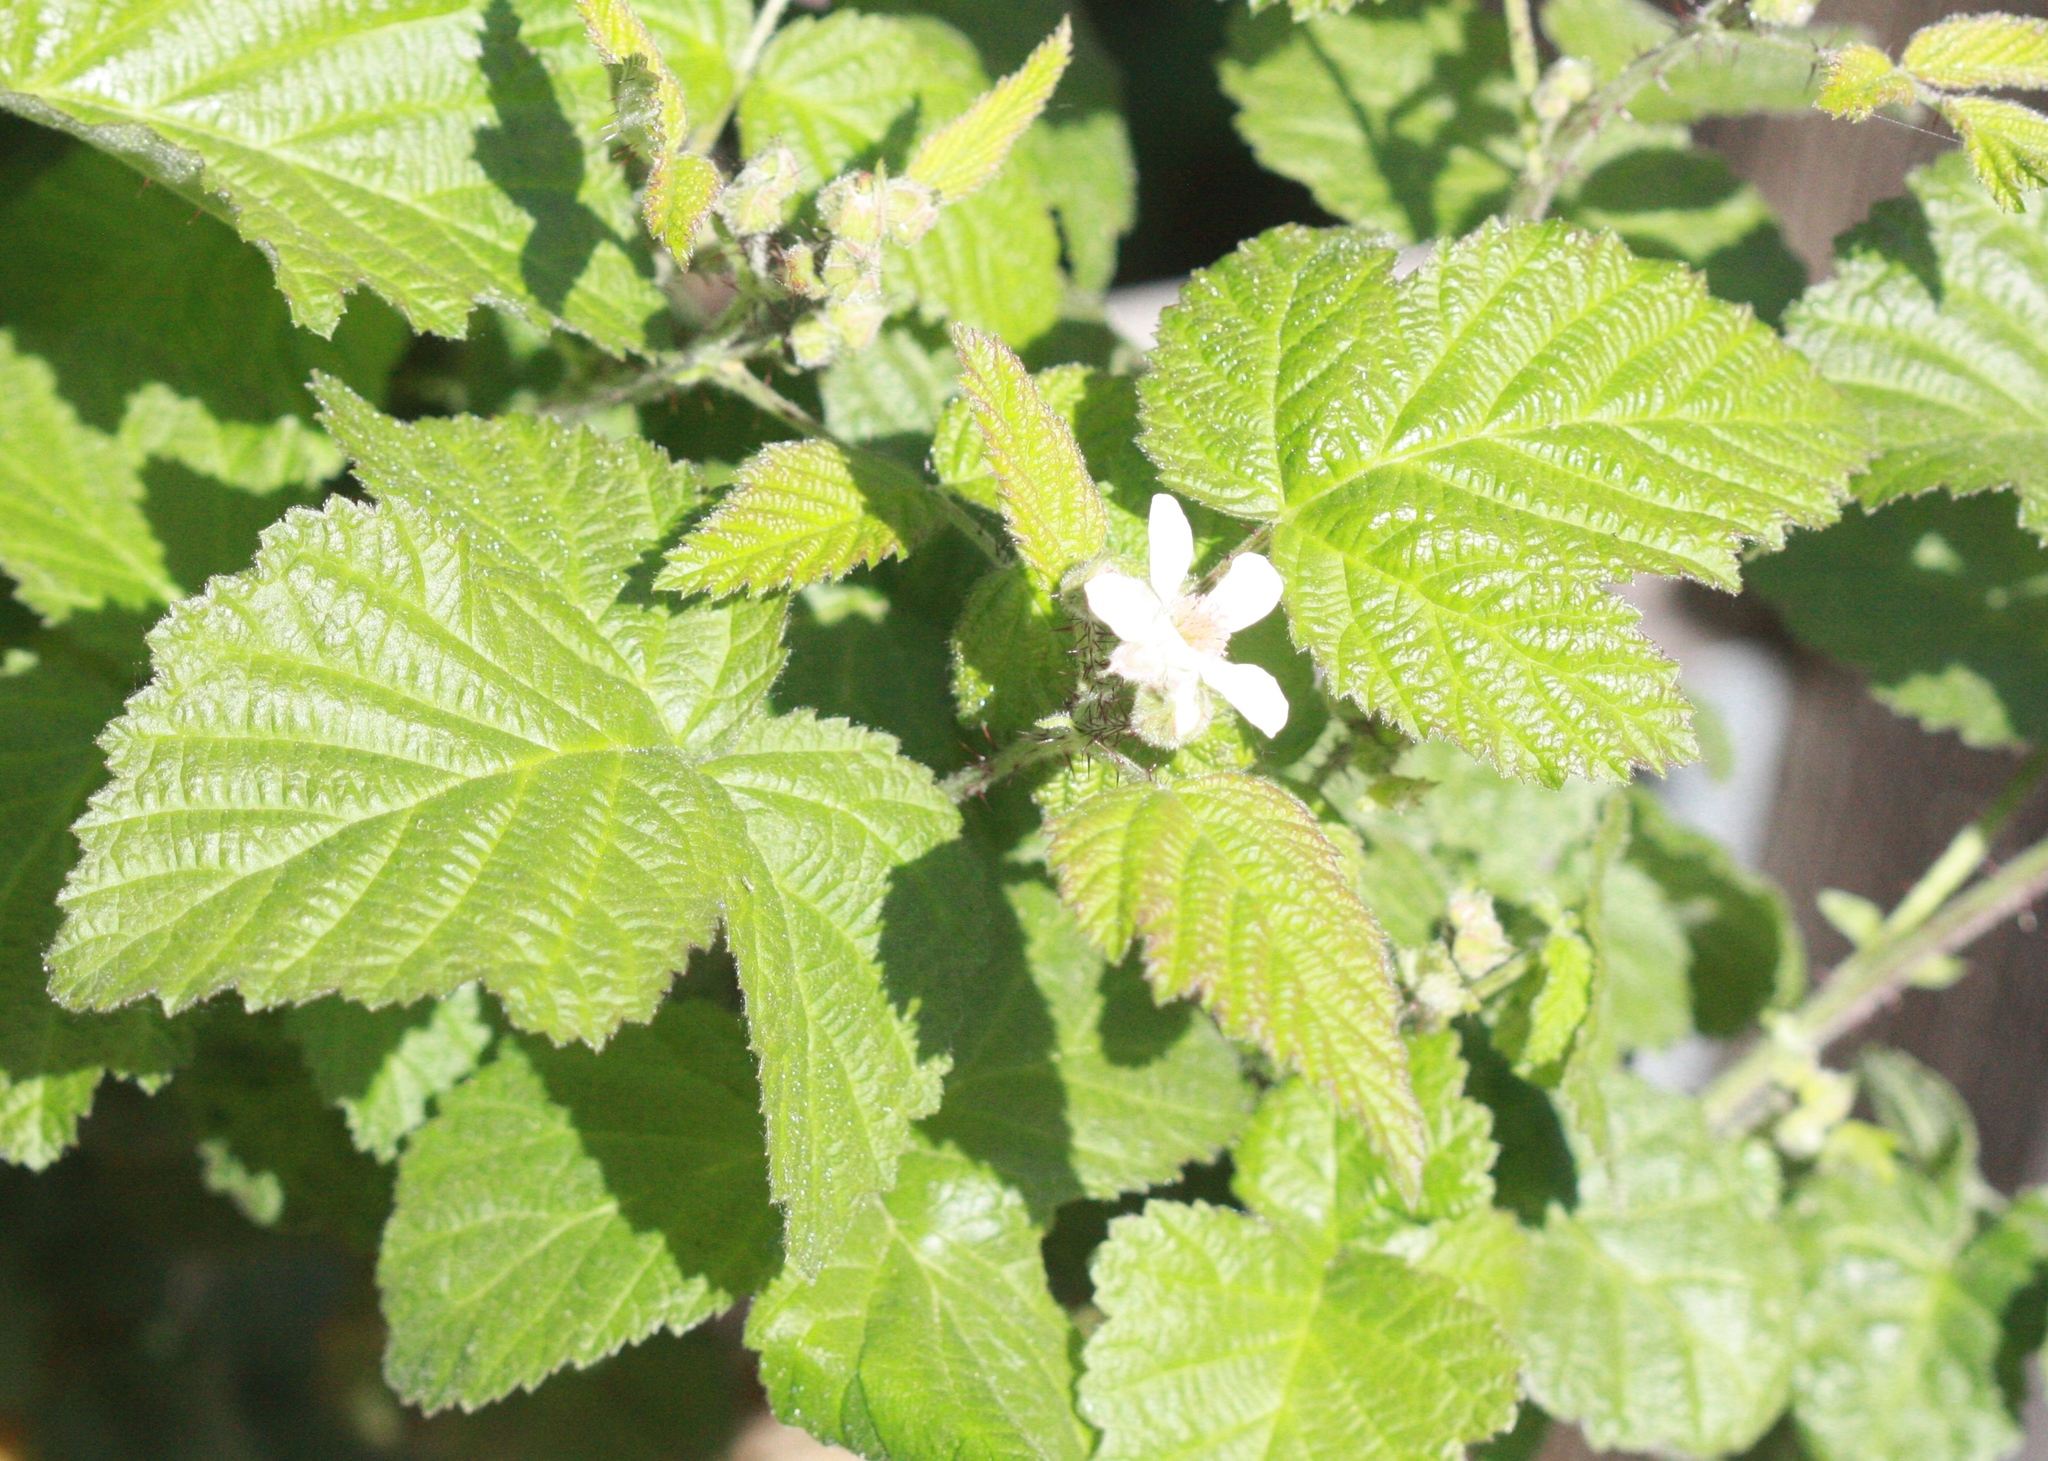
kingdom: Plantae
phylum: Tracheophyta
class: Magnoliopsida
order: Rosales
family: Rosaceae
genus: Rubus
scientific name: Rubus ursinus
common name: Pacific blackberry
